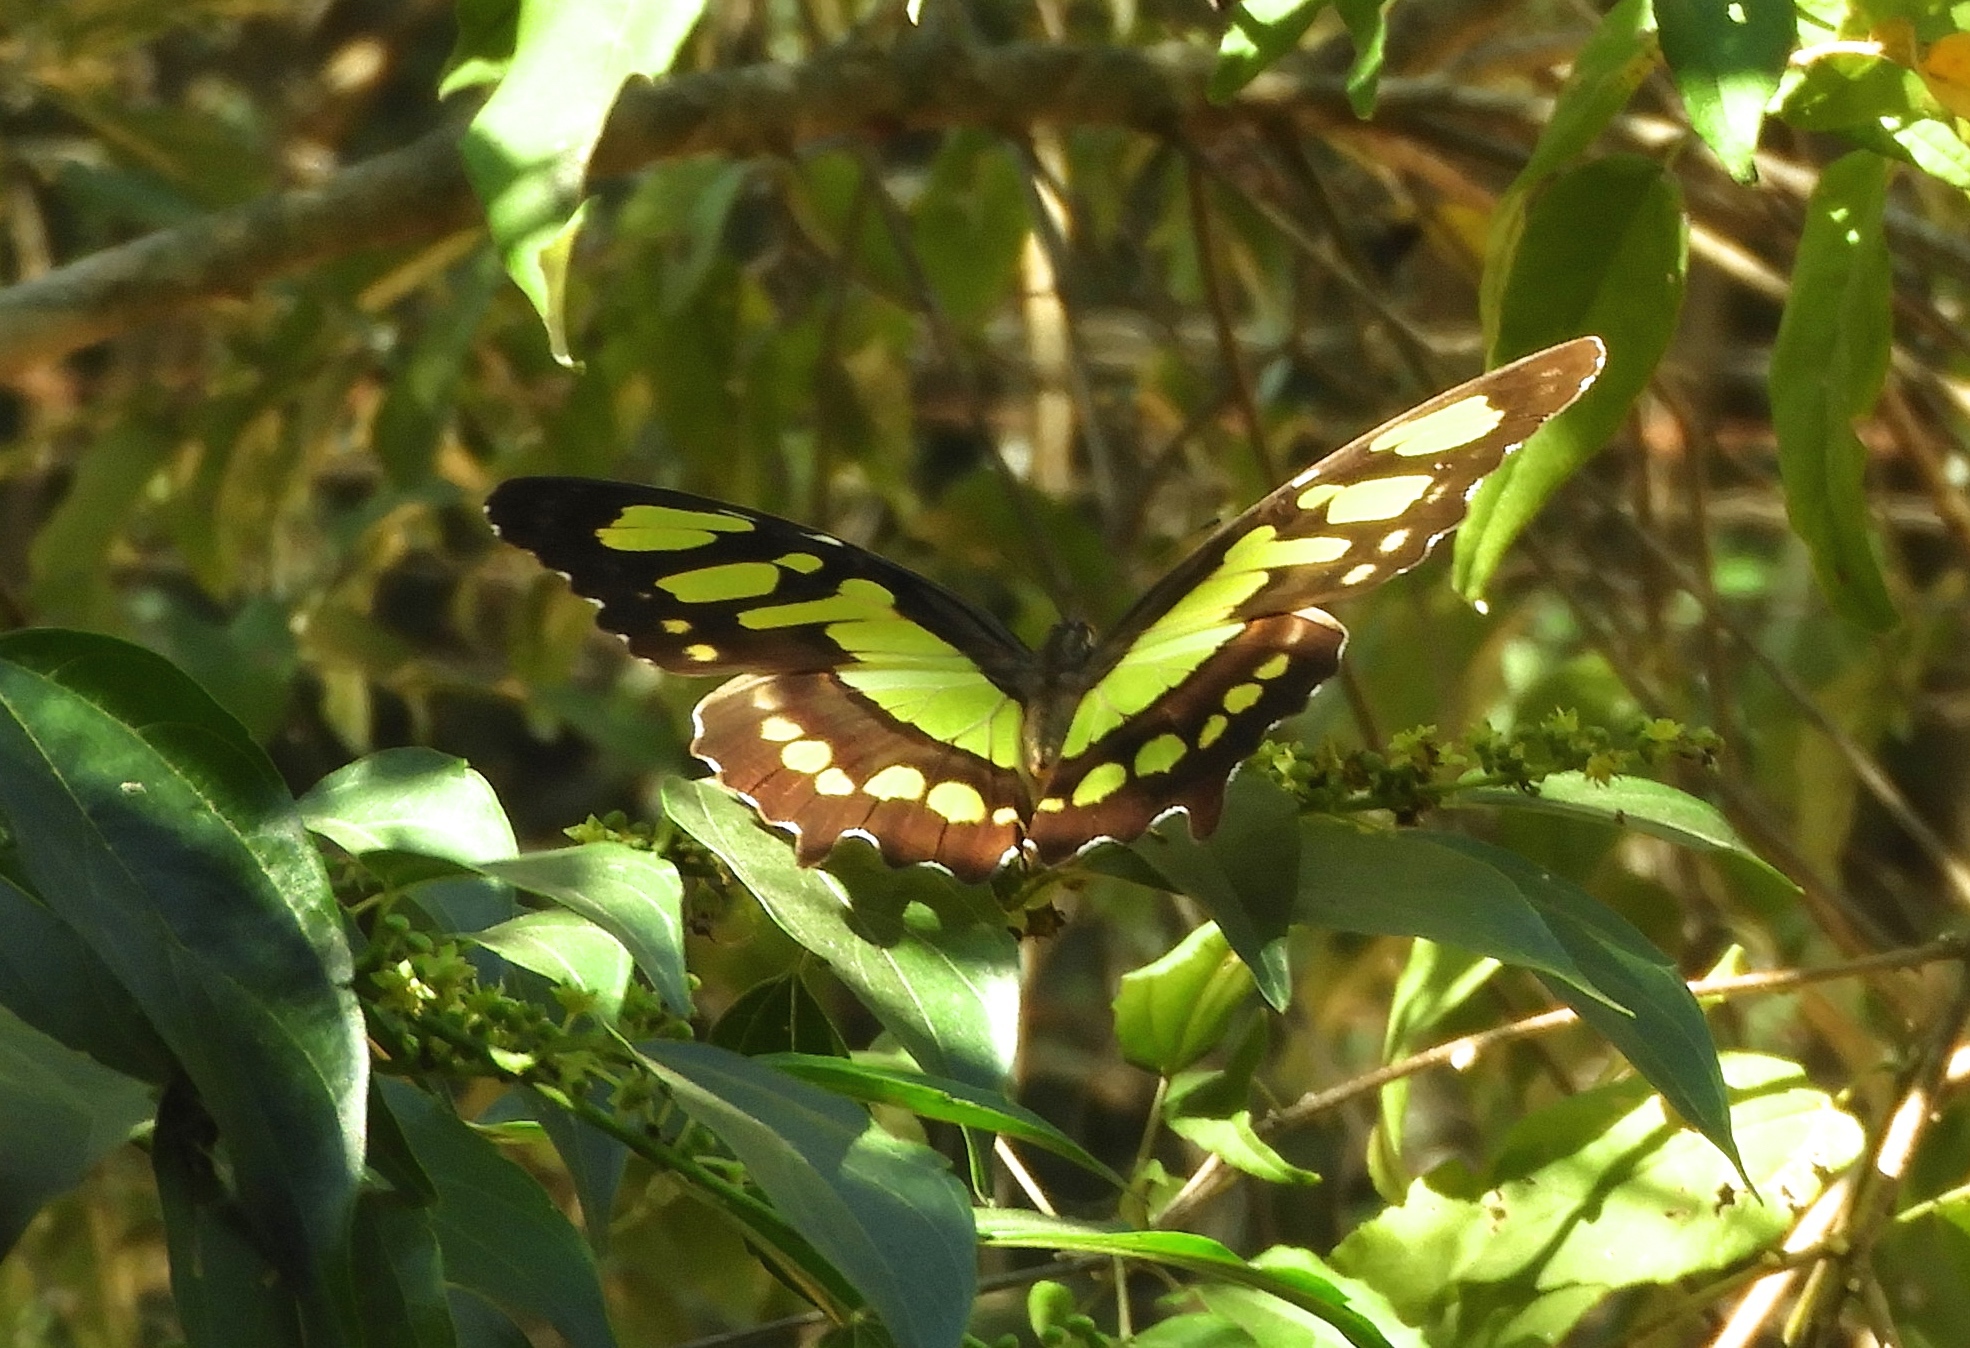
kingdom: Animalia
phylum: Arthropoda
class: Insecta
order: Lepidoptera
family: Nymphalidae
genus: Siproeta
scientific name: Siproeta stelenes
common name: Malachite
